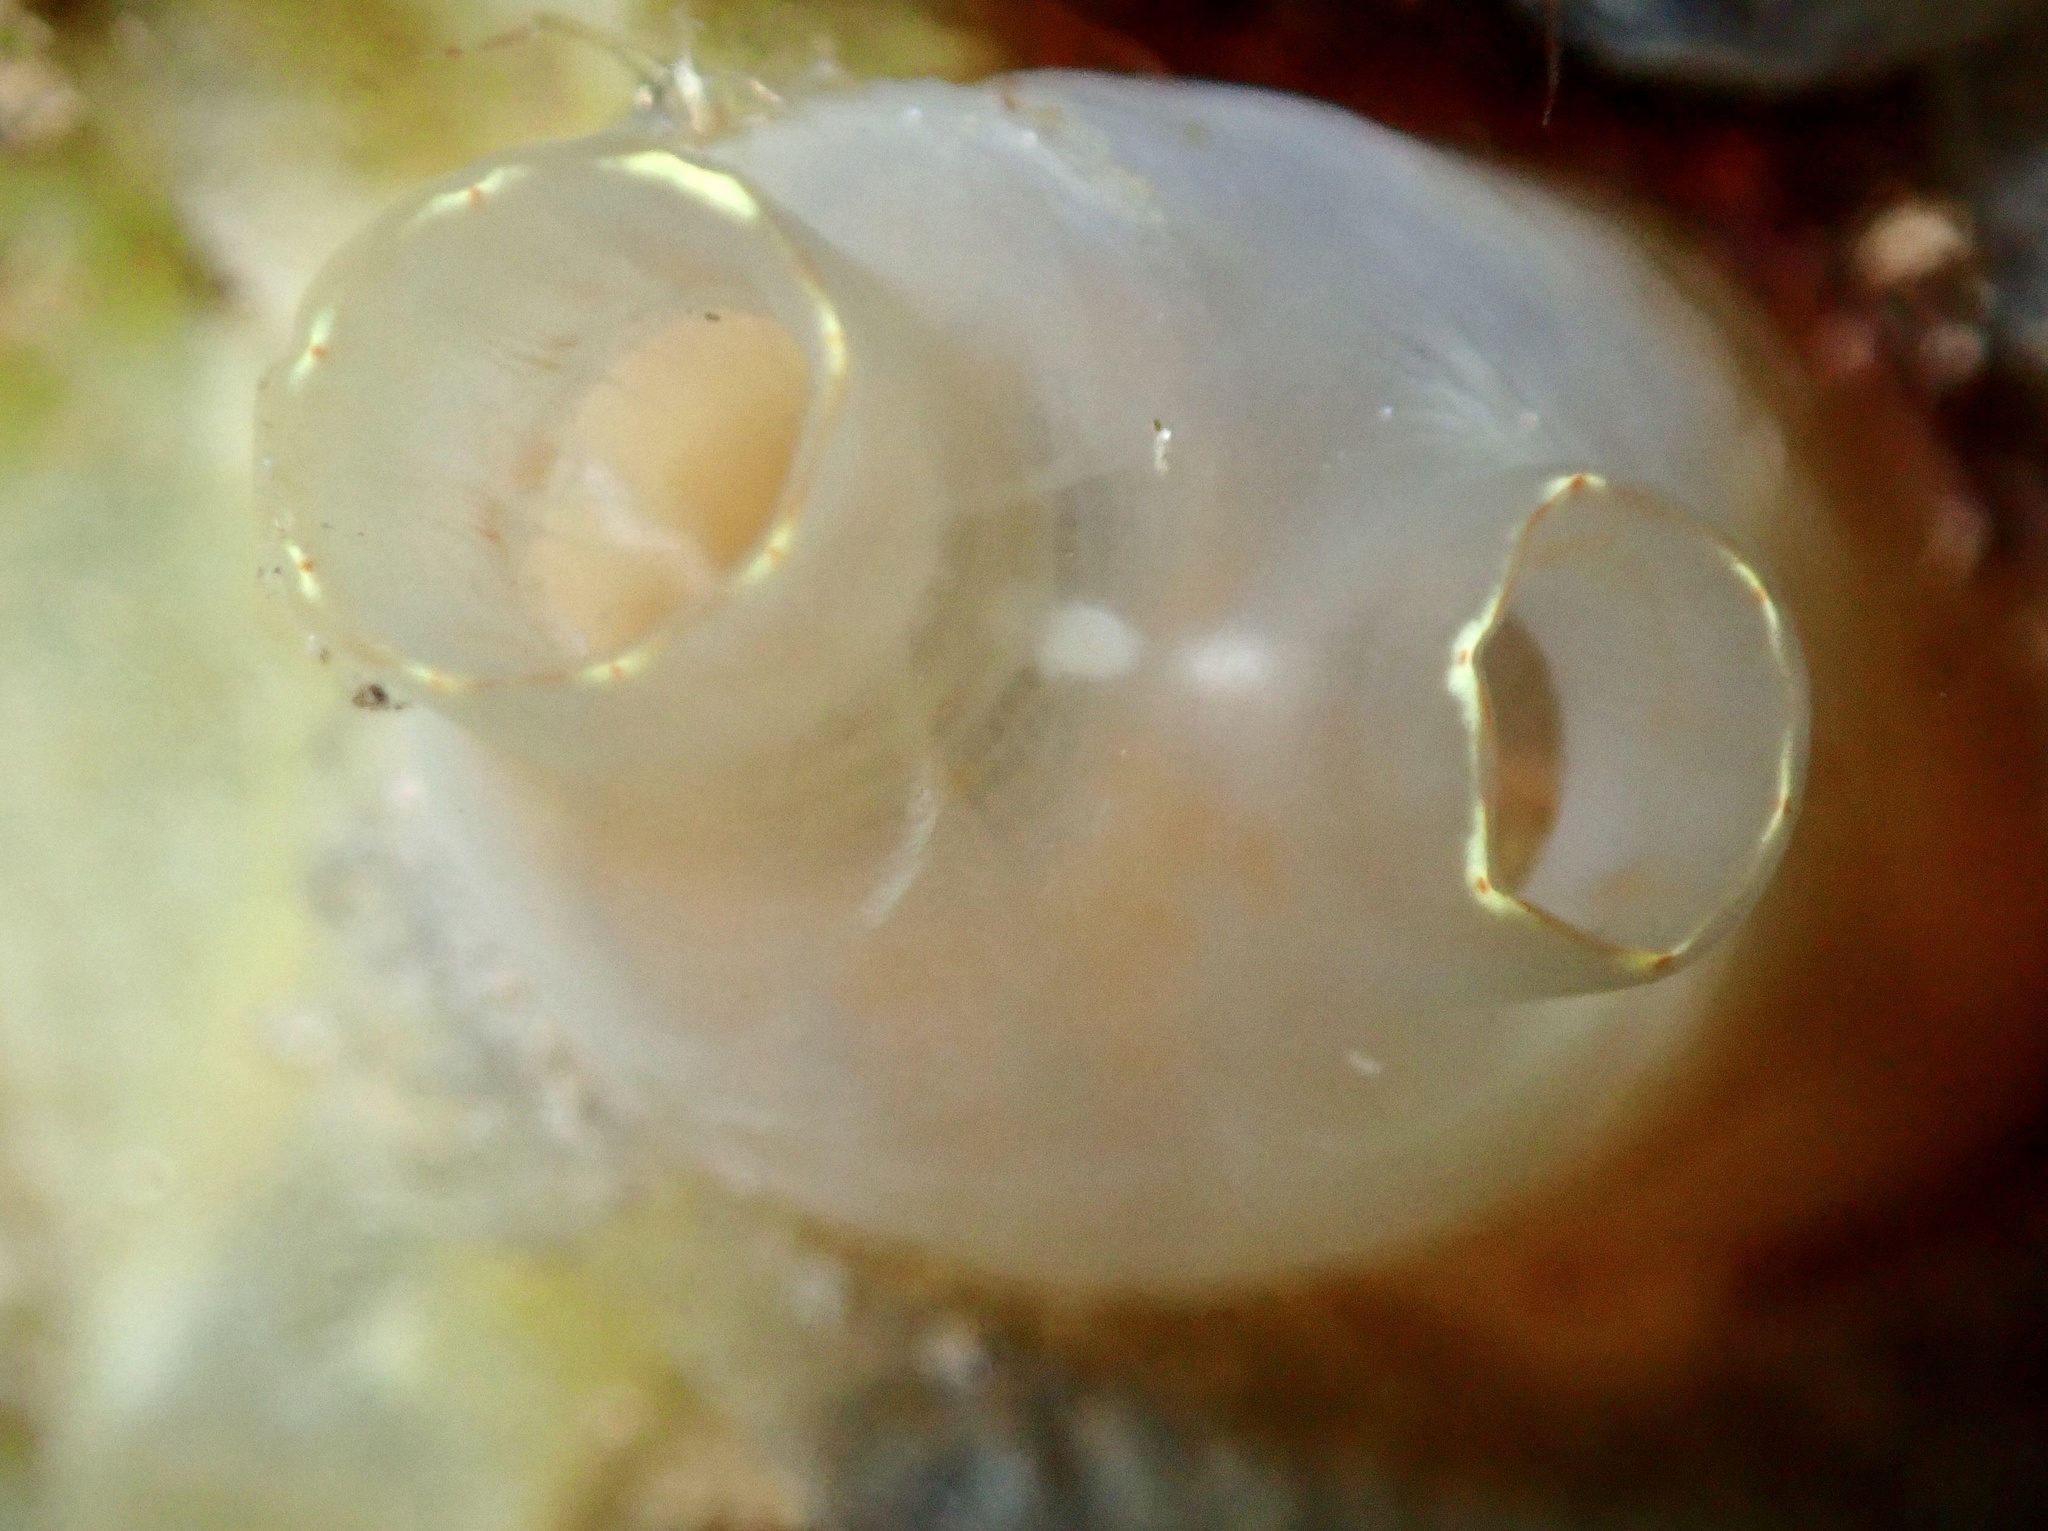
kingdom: Animalia
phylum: Chordata
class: Ascidiacea
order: Phlebobranchia
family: Cionidae
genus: Ciona
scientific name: Ciona intestinalis
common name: Vase tunicate
